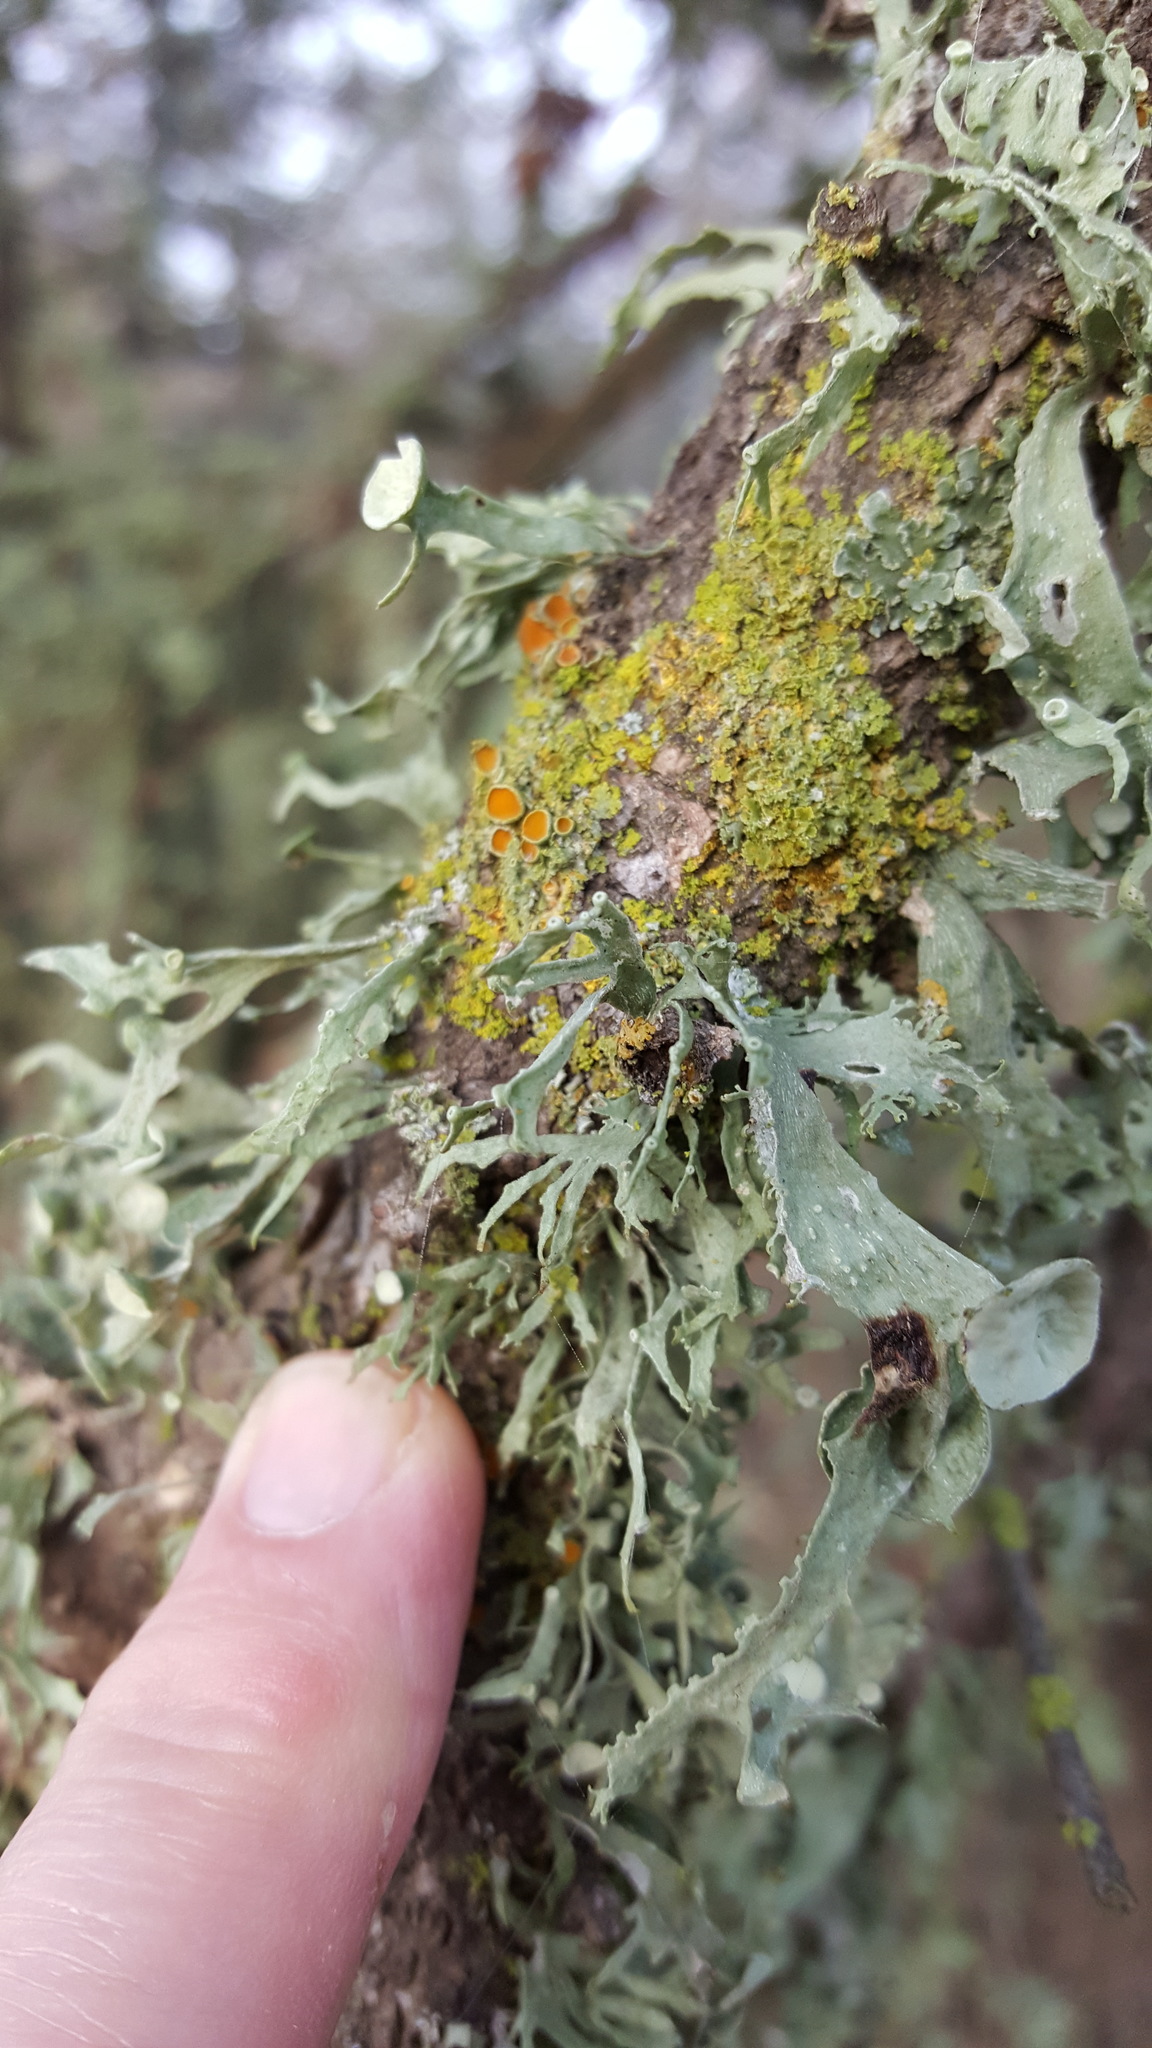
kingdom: Fungi
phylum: Ascomycota
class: Lecanoromycetes
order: Lecanorales
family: Ramalinaceae
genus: Ramalina
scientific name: Ramalina leptocarpha
